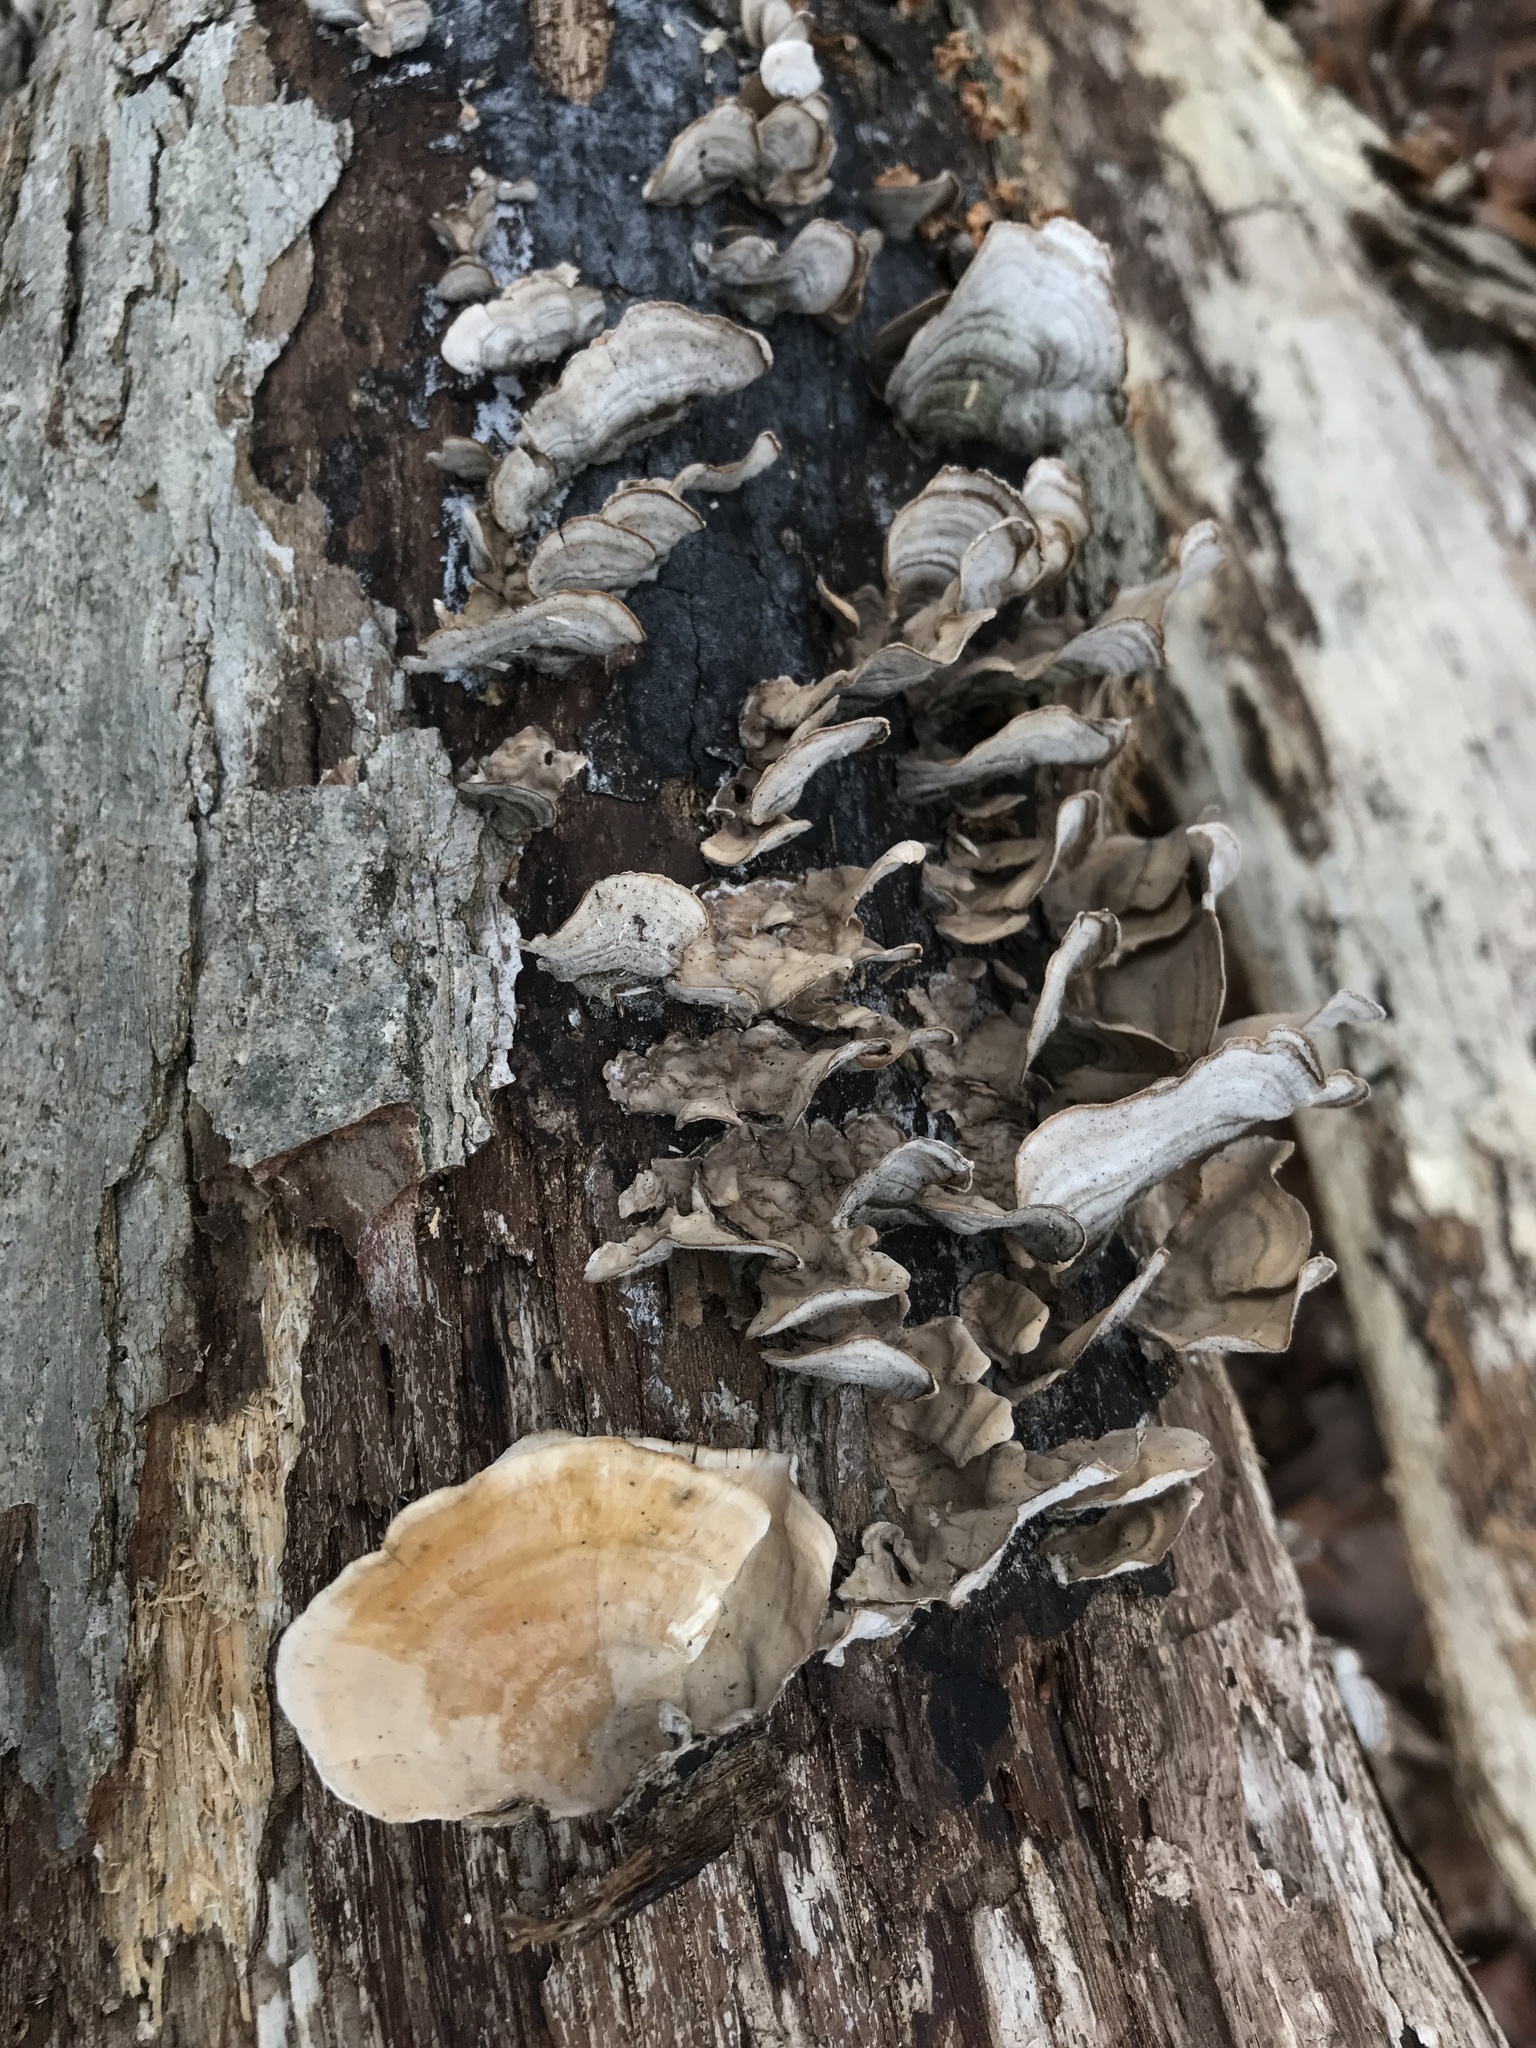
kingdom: Fungi
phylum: Basidiomycota
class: Agaricomycetes
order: Russulales
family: Stereaceae
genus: Stereum
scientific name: Stereum ostrea
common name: False turkeytail
